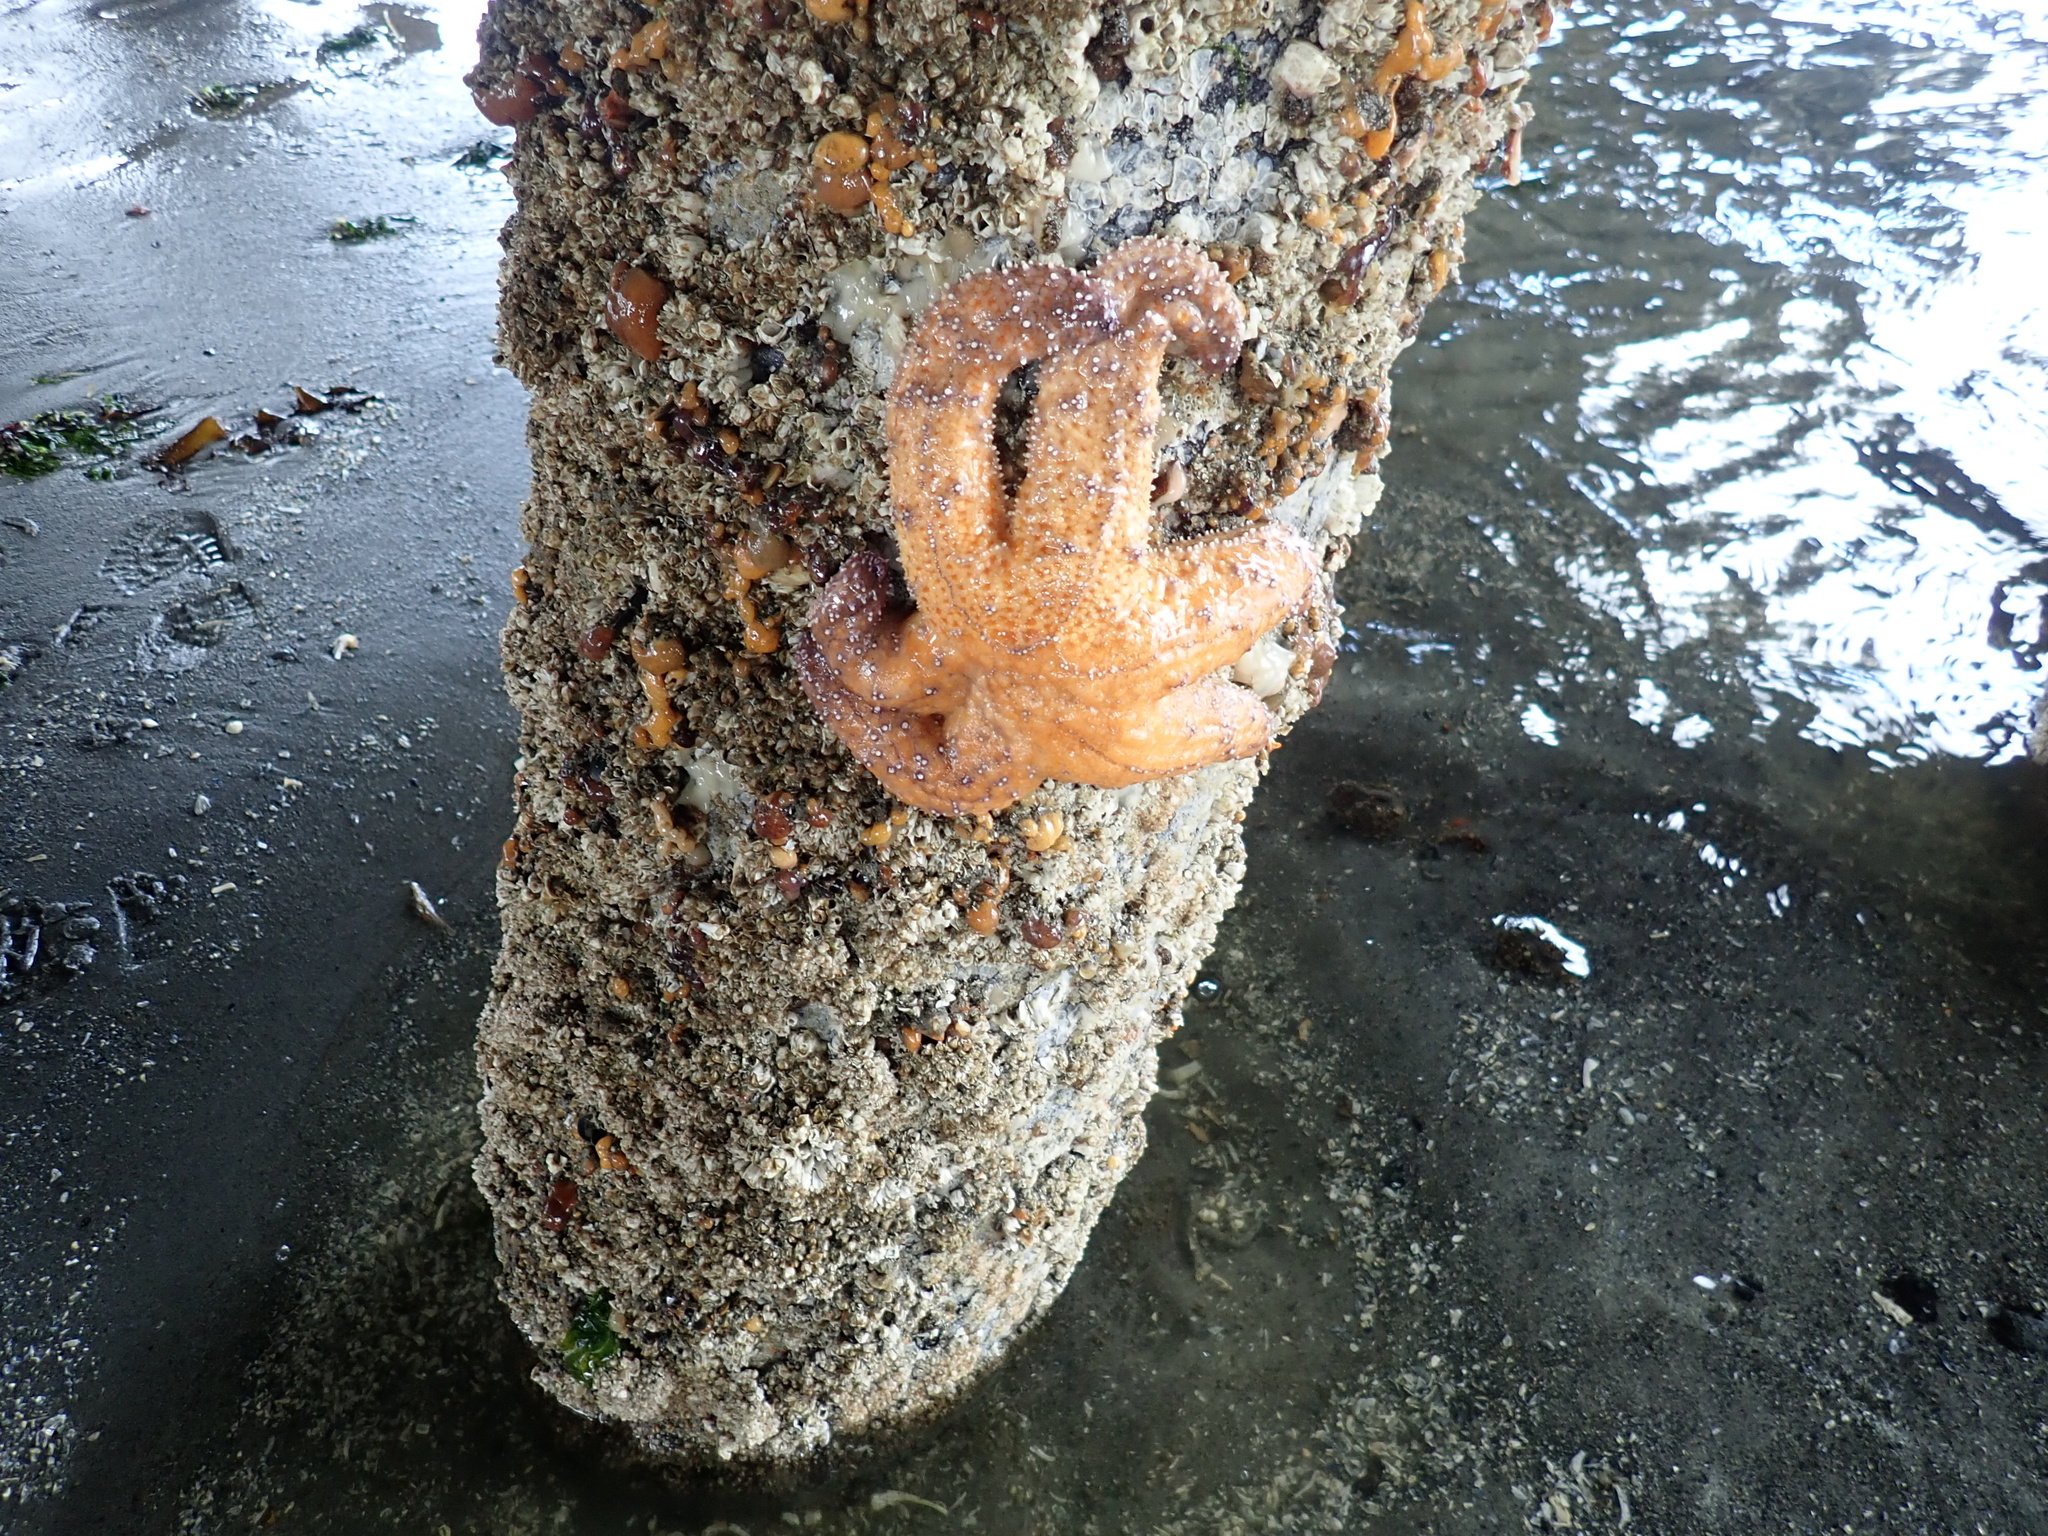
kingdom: Animalia
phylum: Echinodermata
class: Asteroidea
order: Forcipulatida
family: Asteriidae
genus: Pisaster
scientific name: Pisaster ochraceus
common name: Ochre stars
